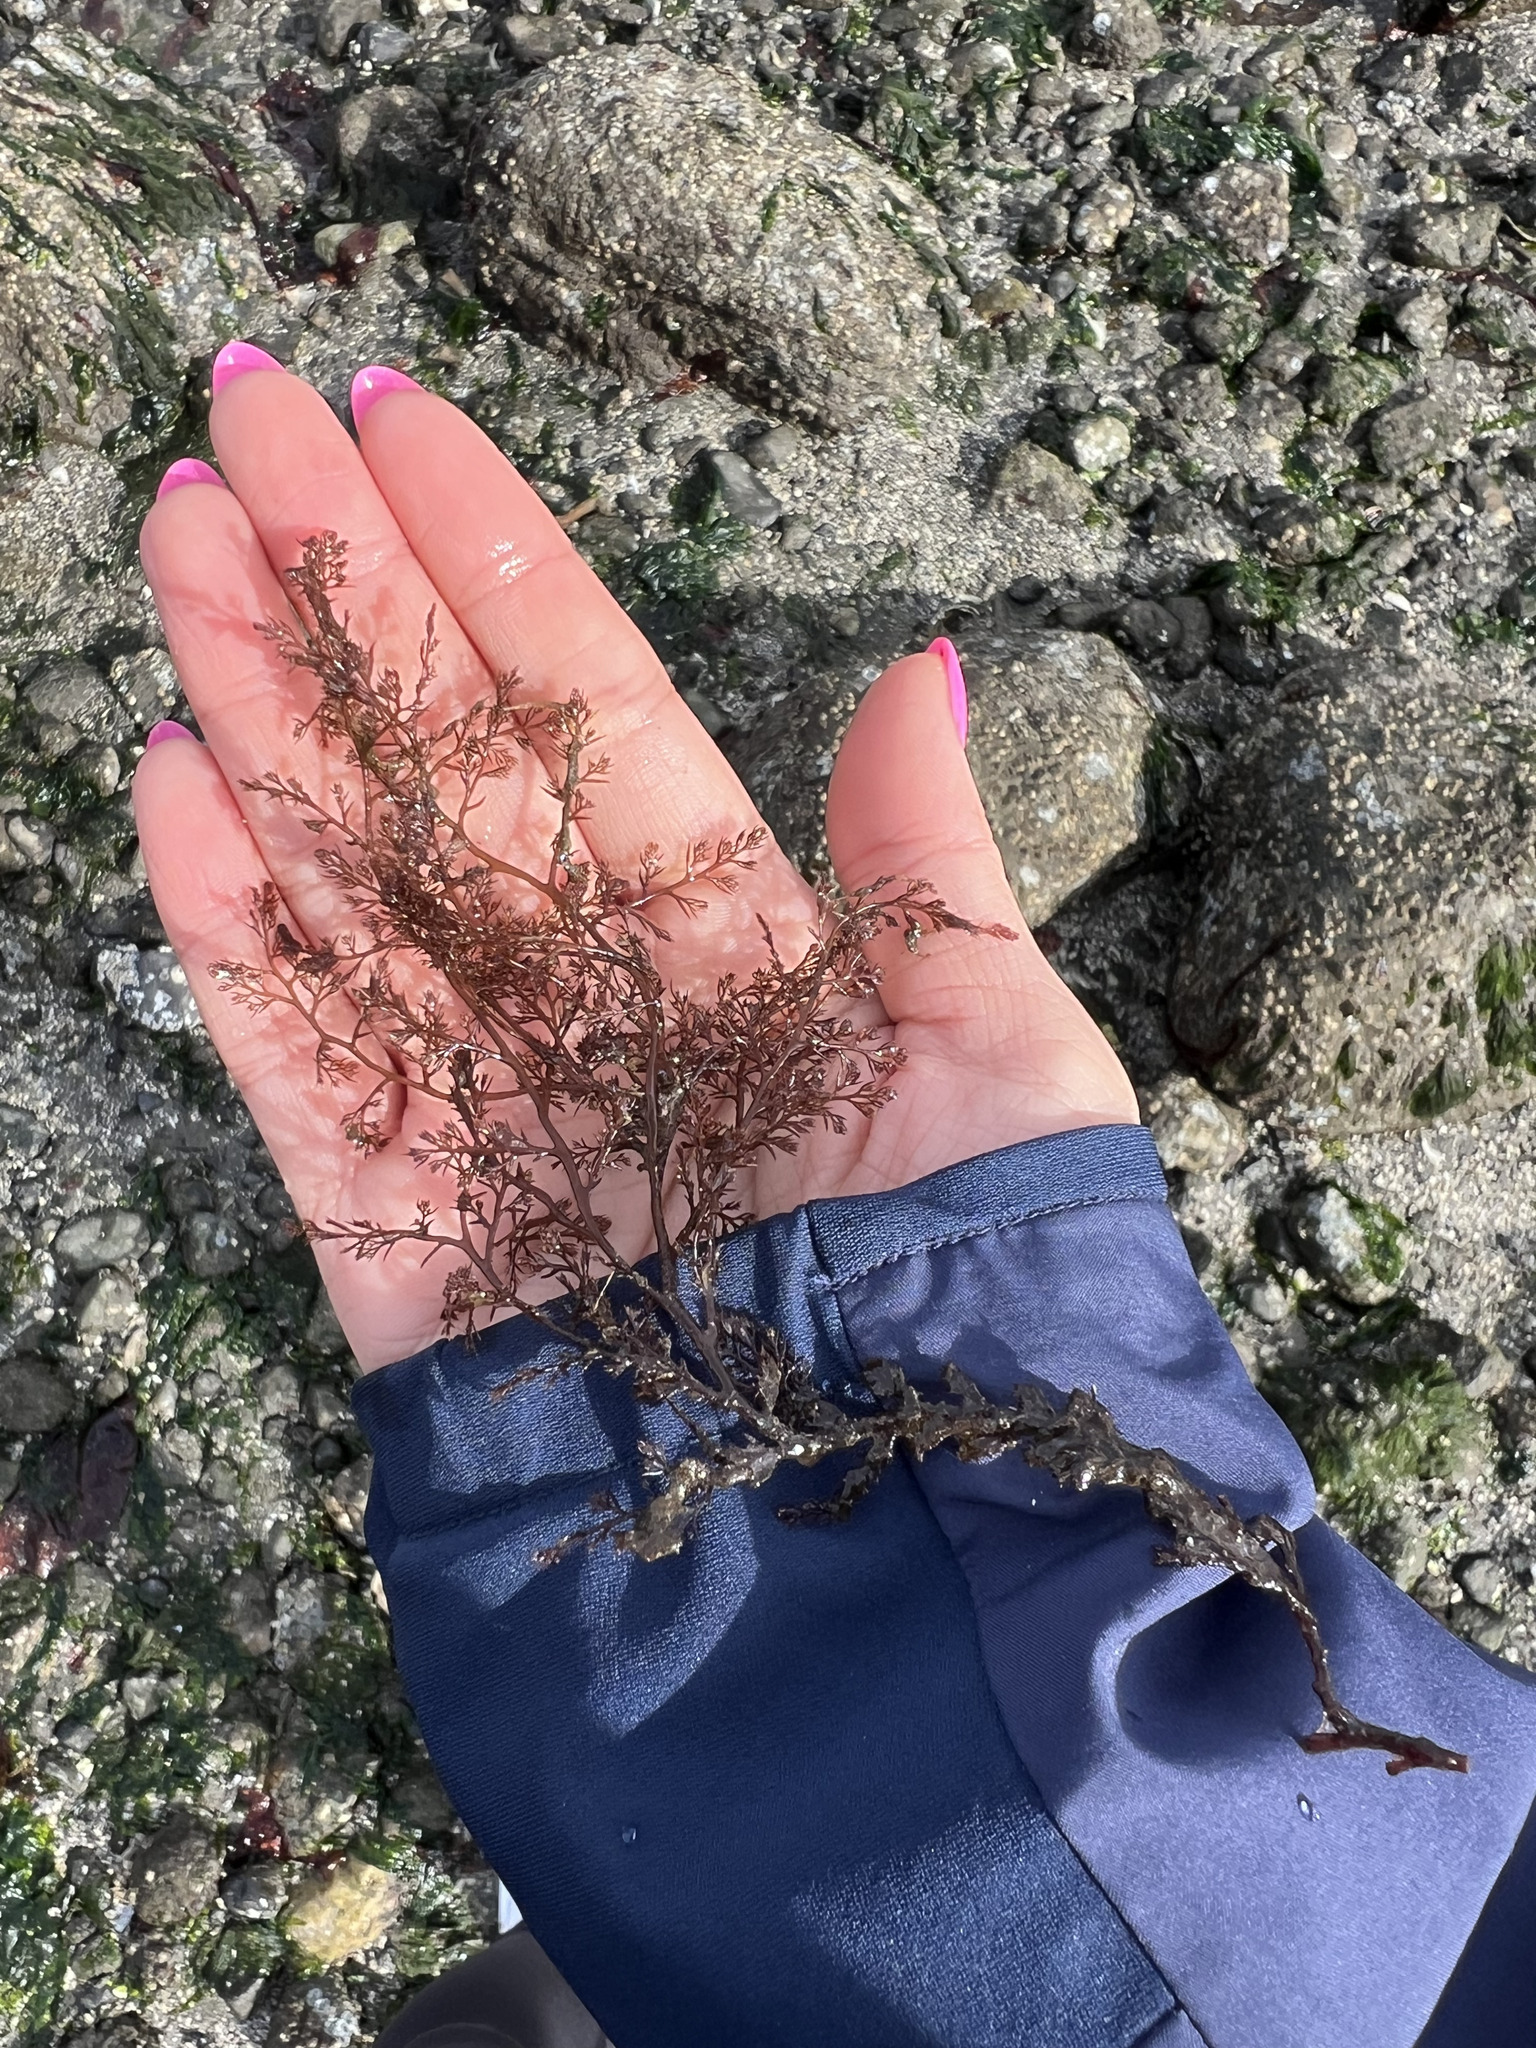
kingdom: Plantae
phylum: Rhodophyta
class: Florideophyceae
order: Ceramiales
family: Rhodomelaceae
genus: Odonthalia
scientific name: Odonthalia floccosa
